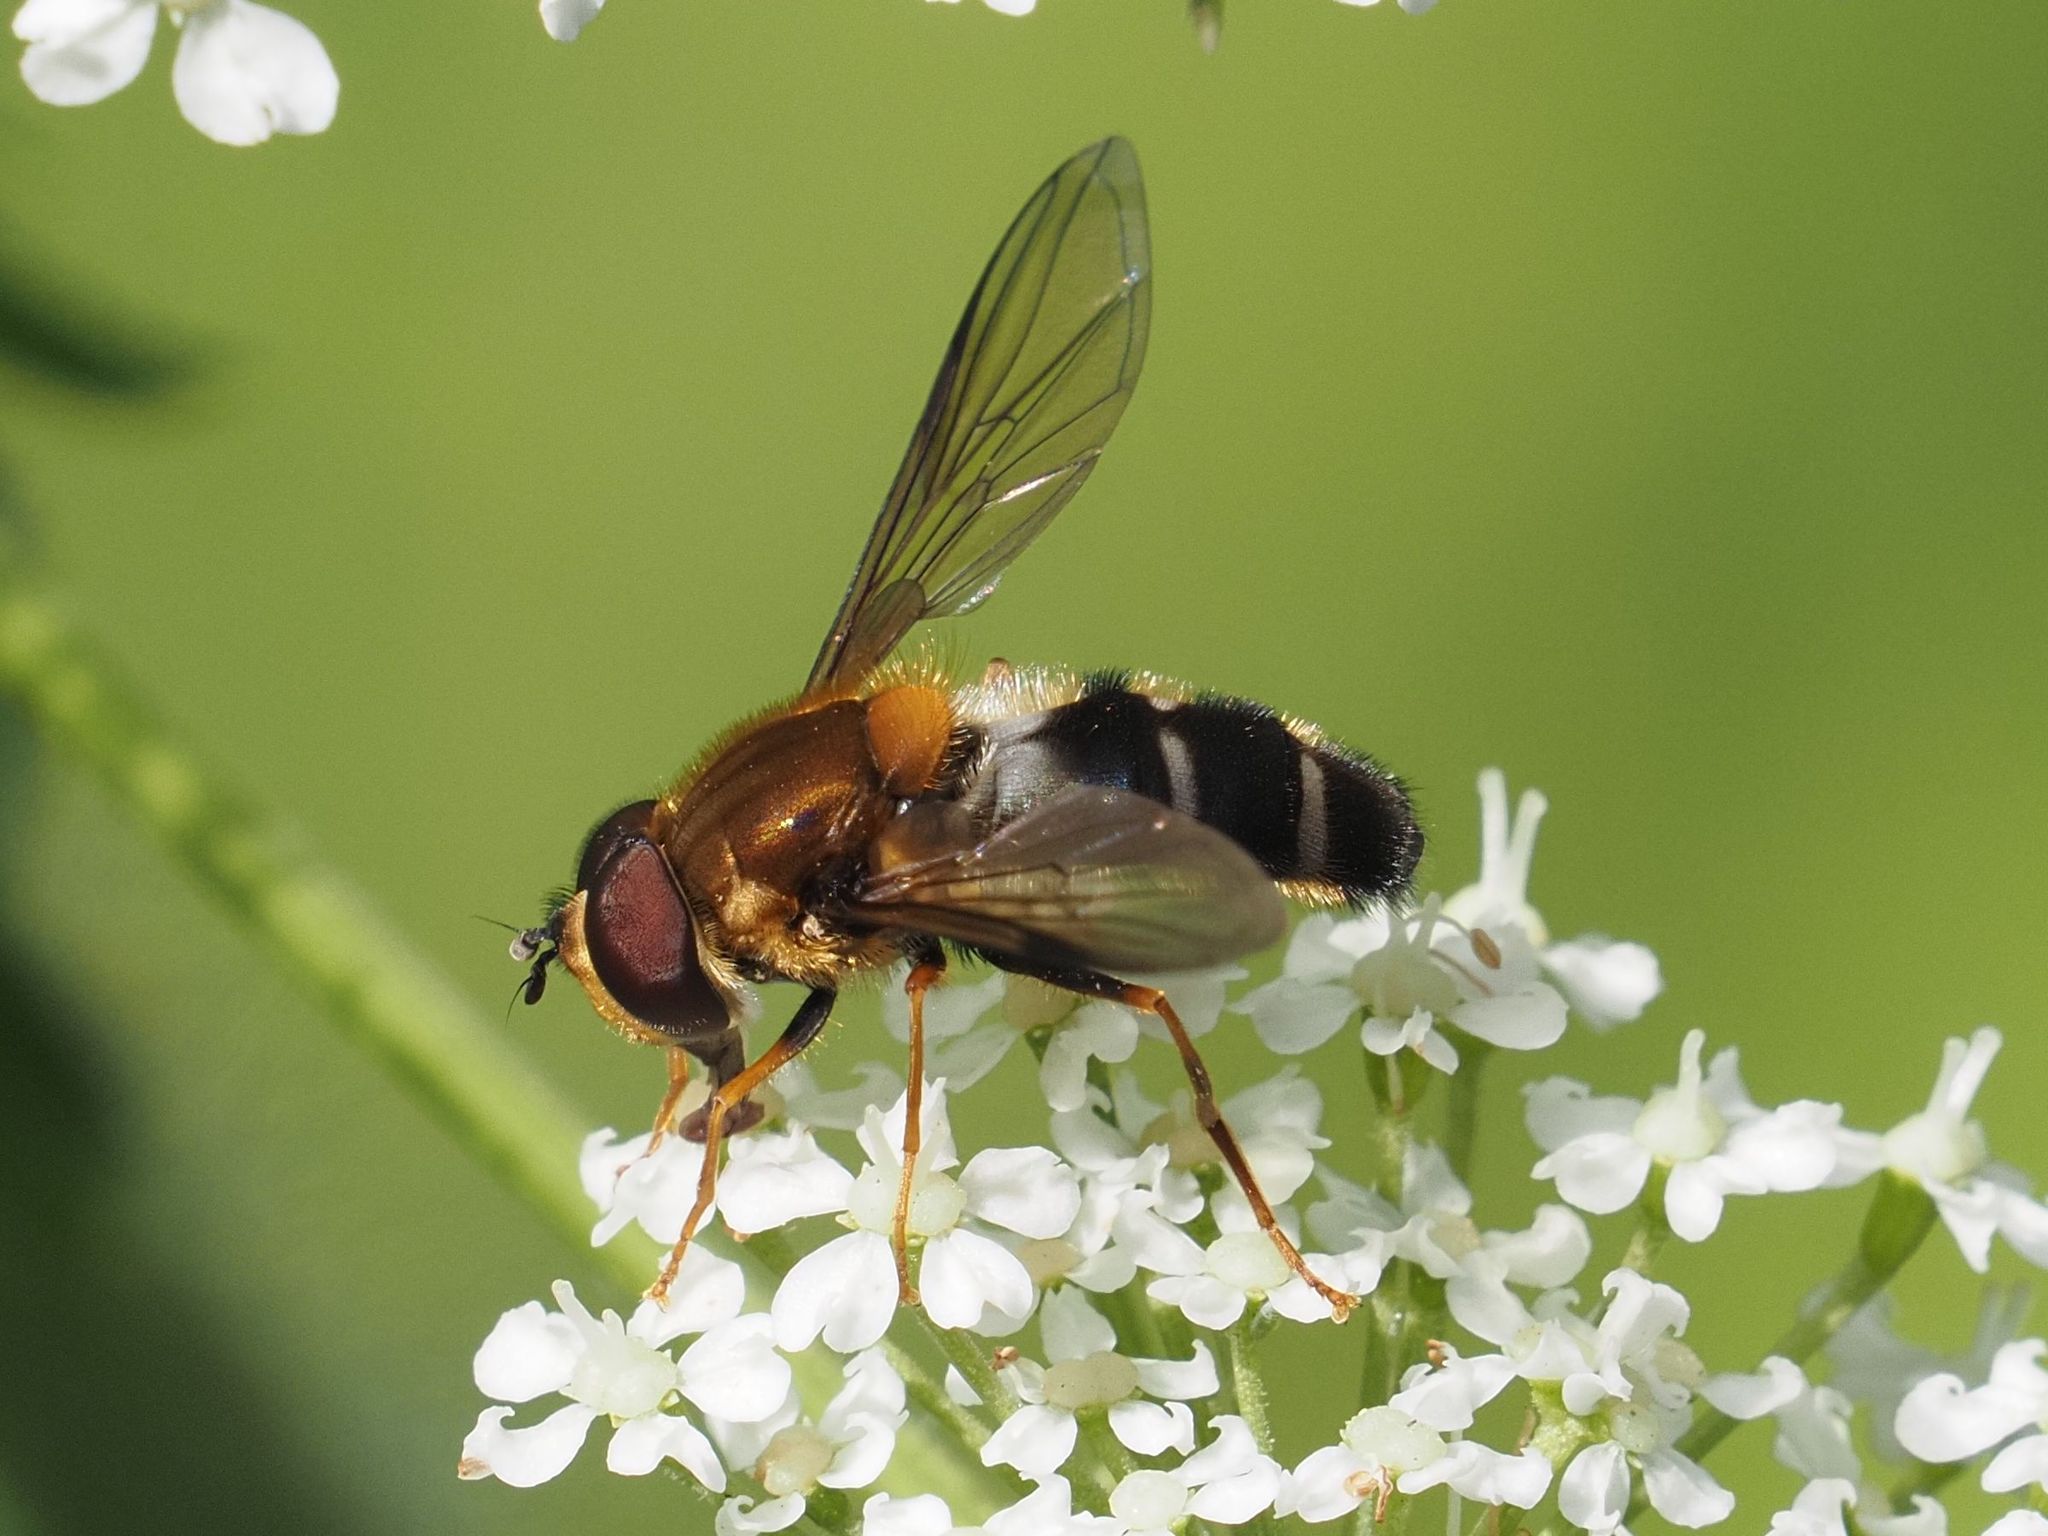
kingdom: Animalia
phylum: Arthropoda
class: Insecta
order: Diptera
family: Syrphidae
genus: Leucozona
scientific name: Leucozona glaucia
